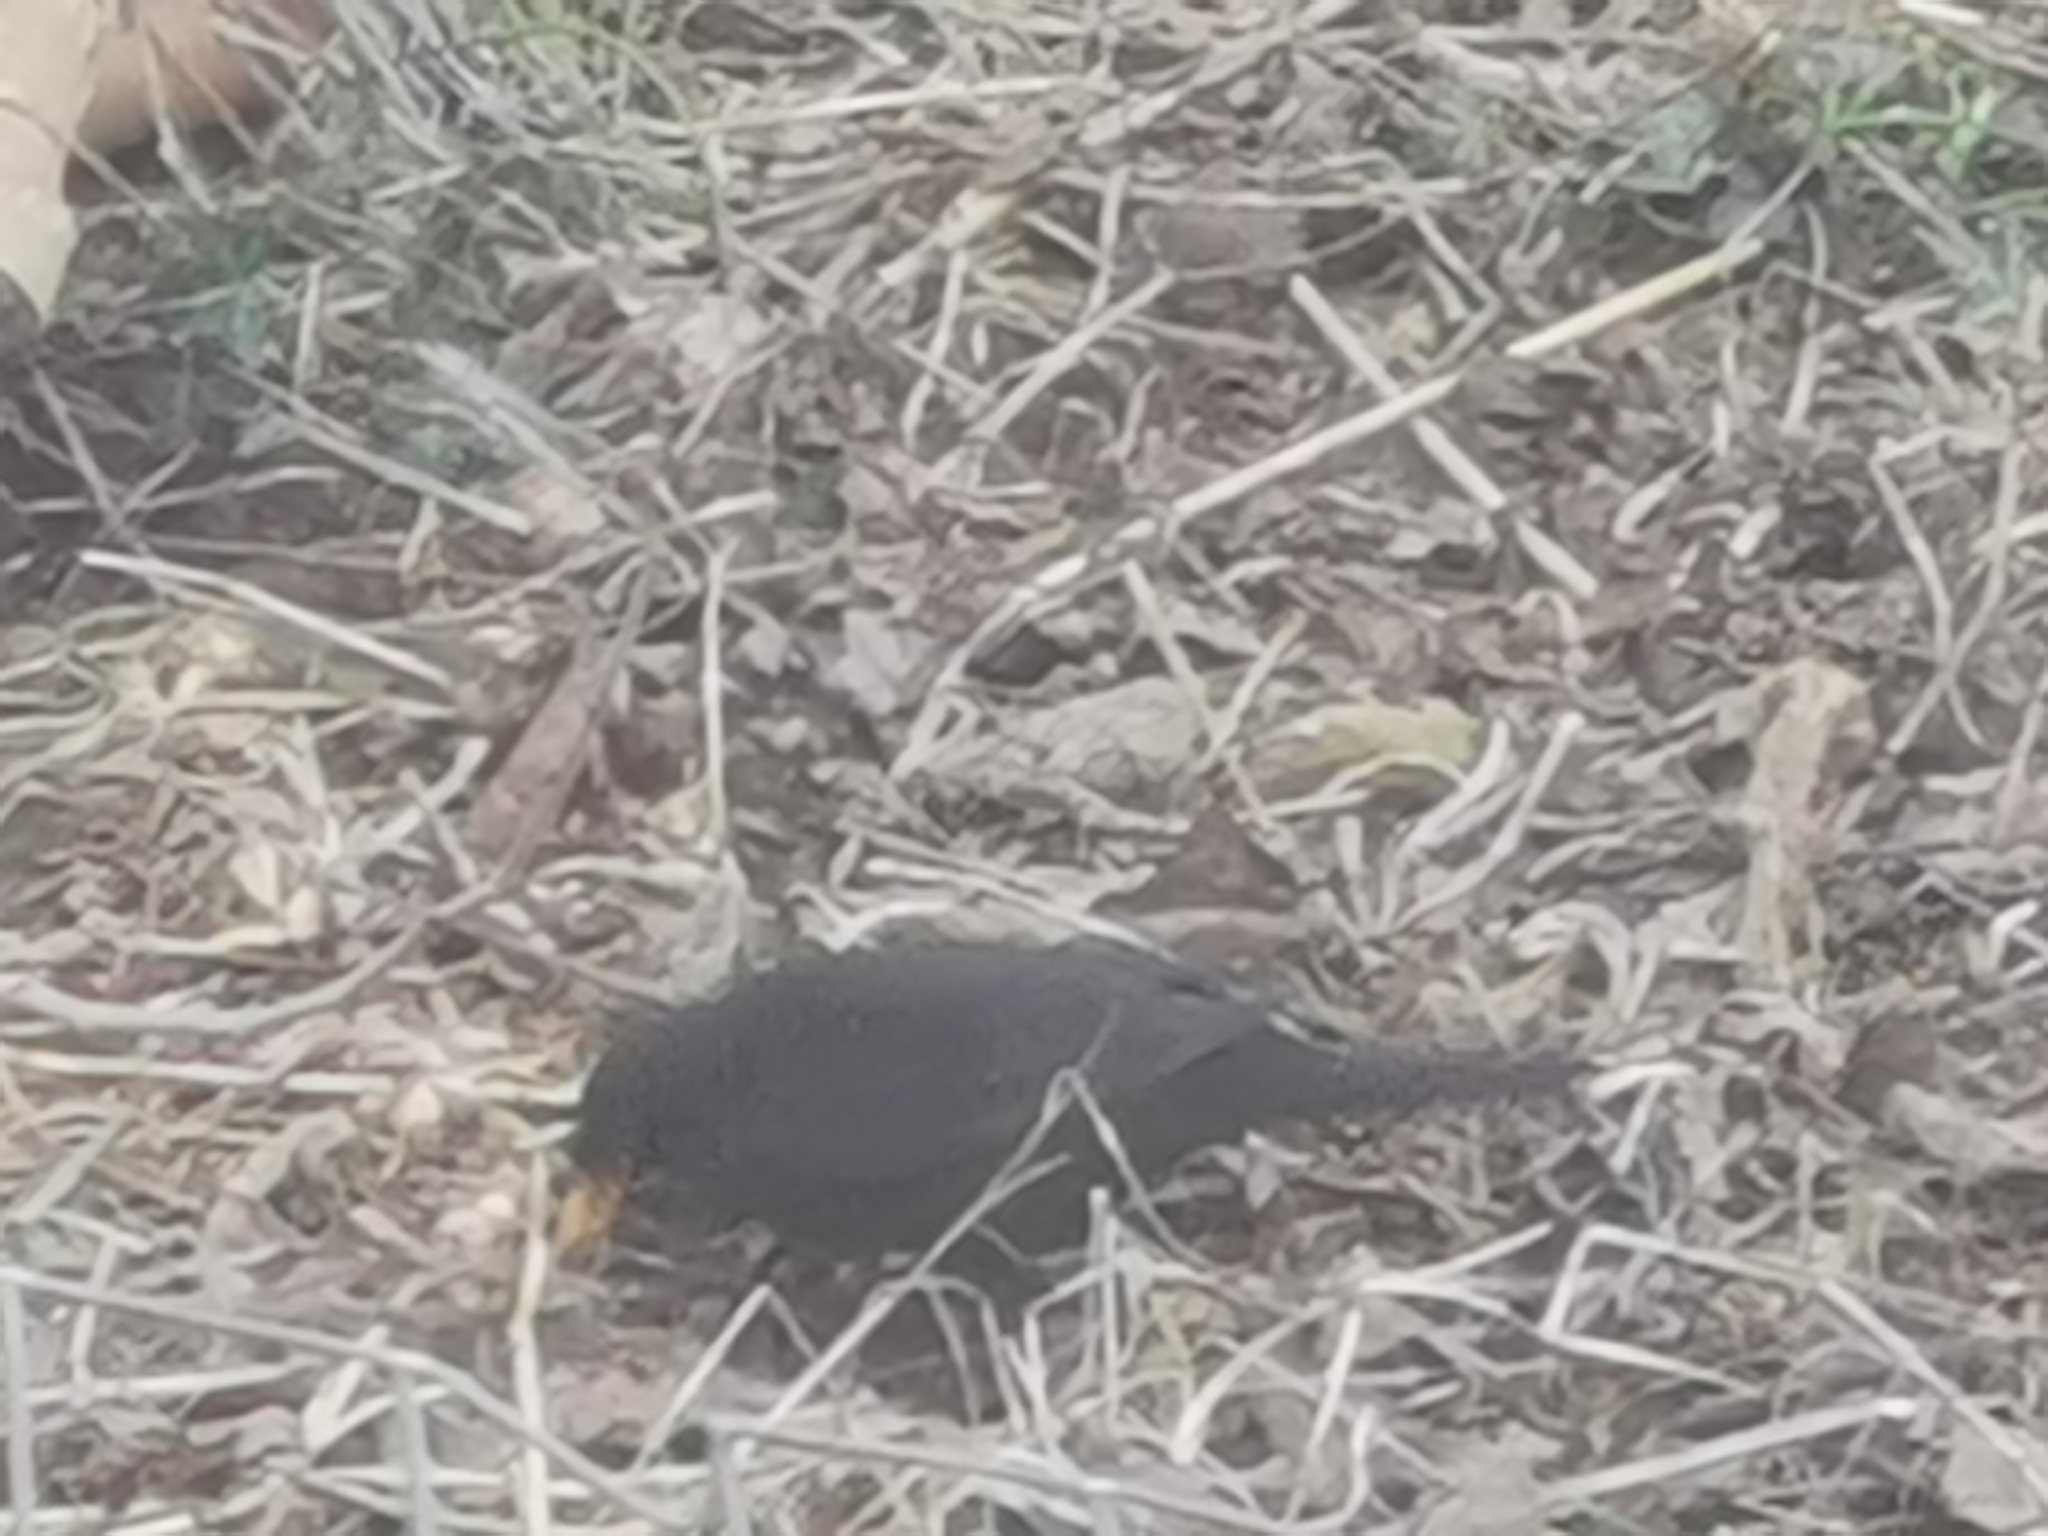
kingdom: Animalia
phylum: Chordata
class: Aves
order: Passeriformes
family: Turdidae
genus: Turdus
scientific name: Turdus merula
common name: Common blackbird
